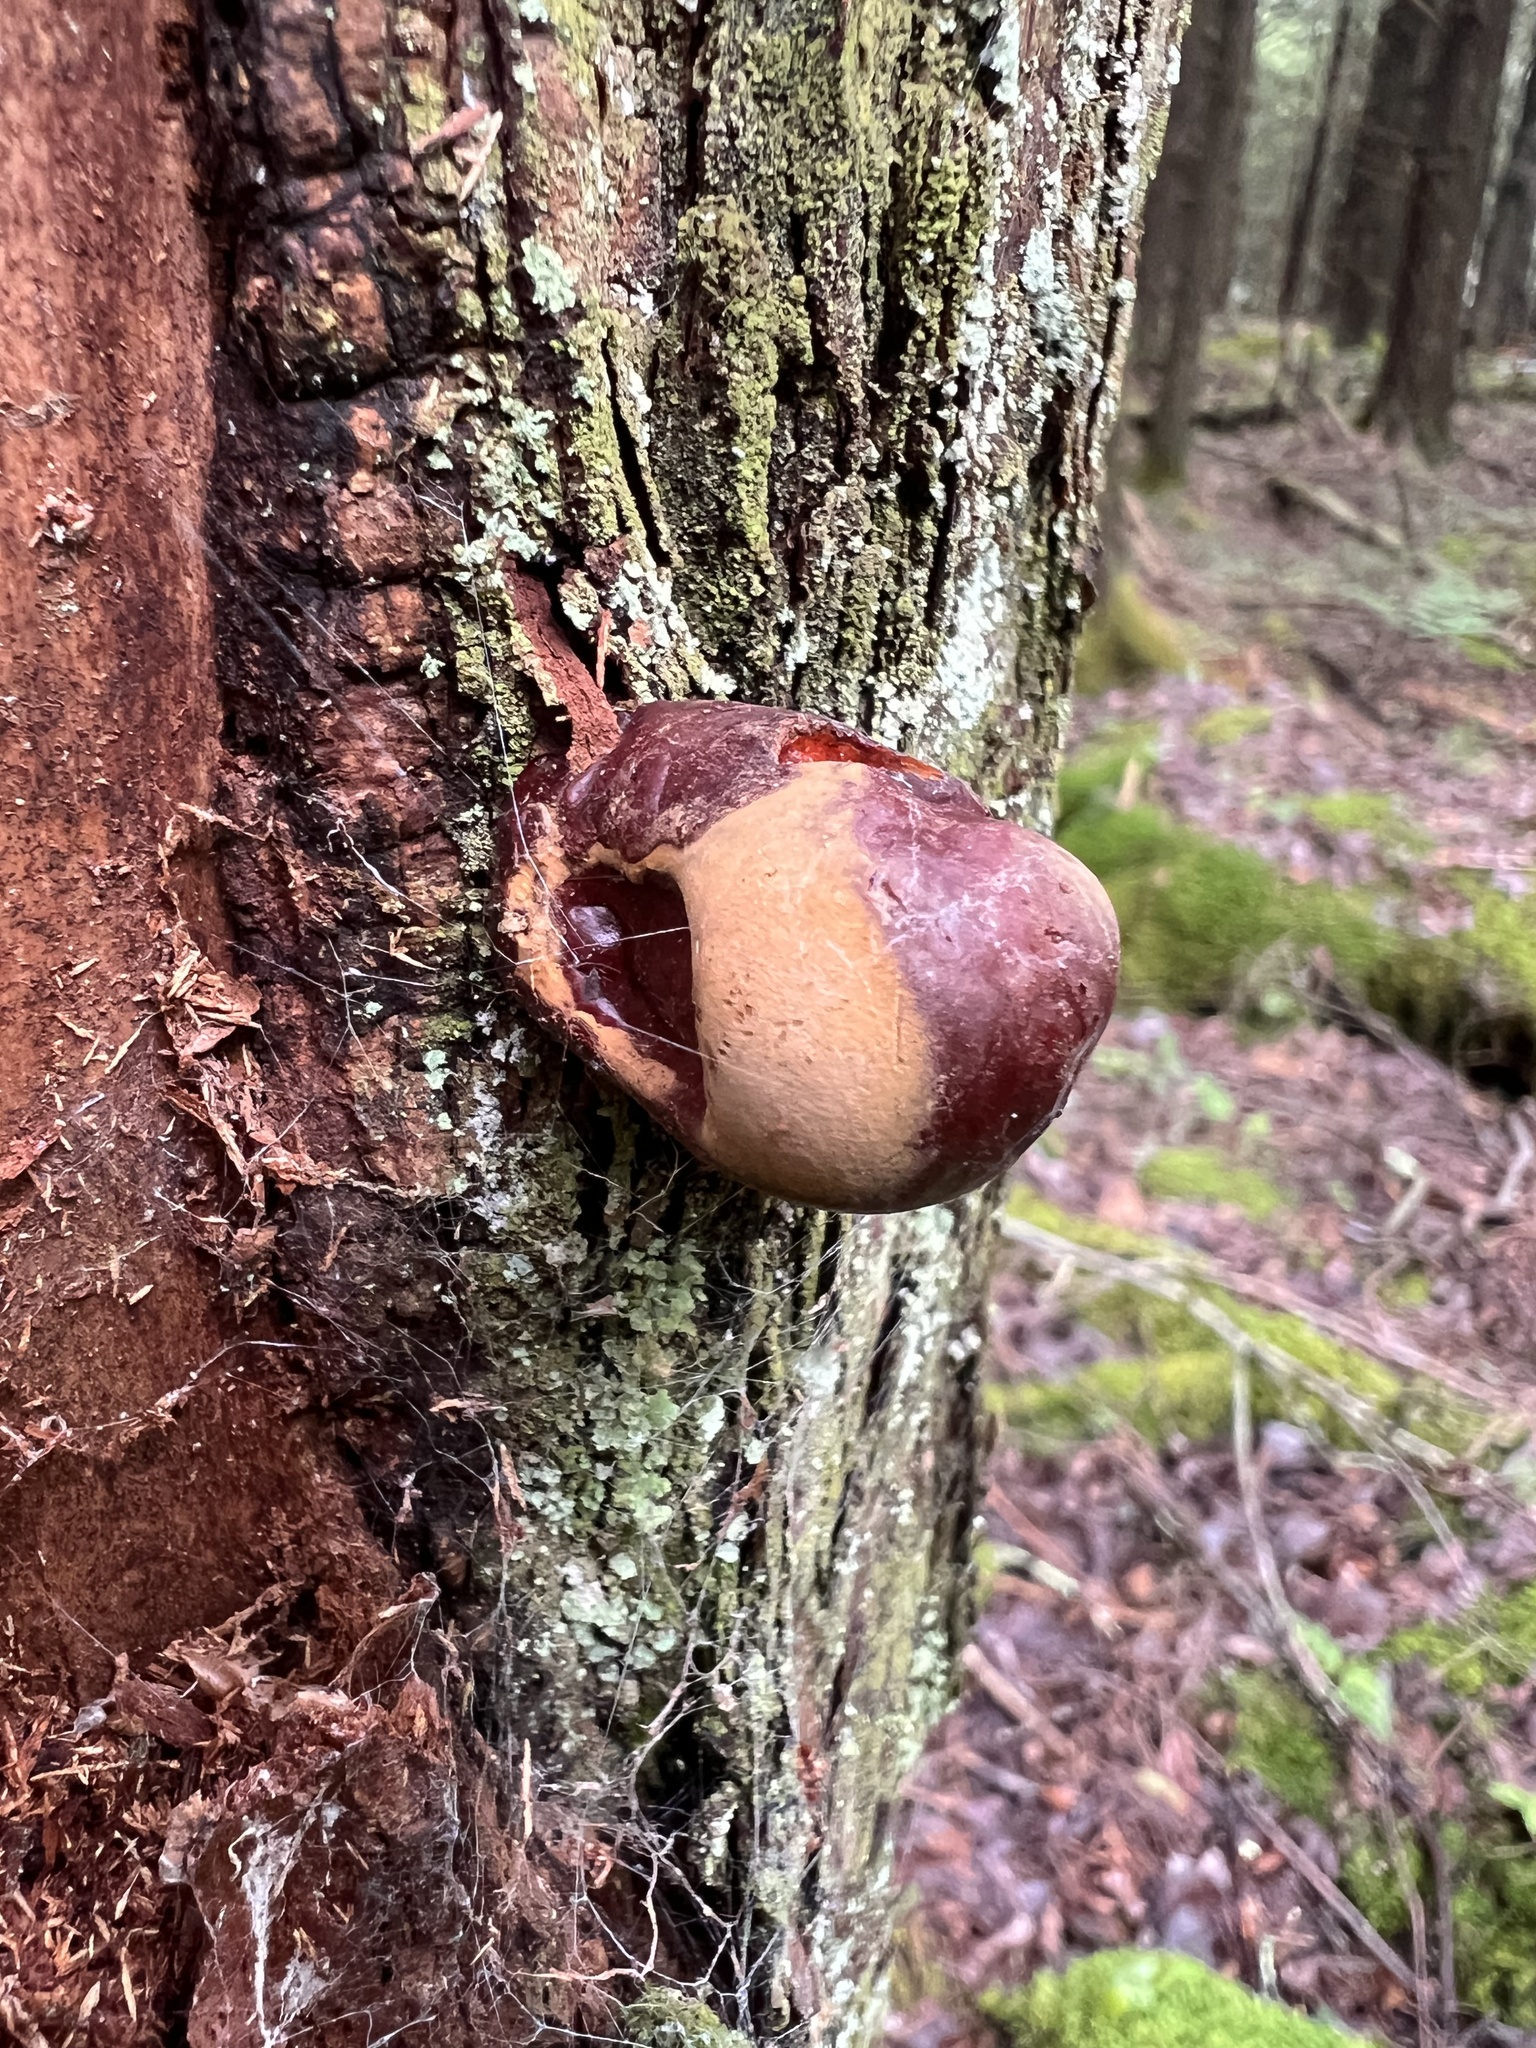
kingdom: Fungi
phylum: Basidiomycota
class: Agaricomycetes
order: Polyporales
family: Polyporaceae
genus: Ganoderma
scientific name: Ganoderma tsugae
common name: Hemlock varnish shelf
